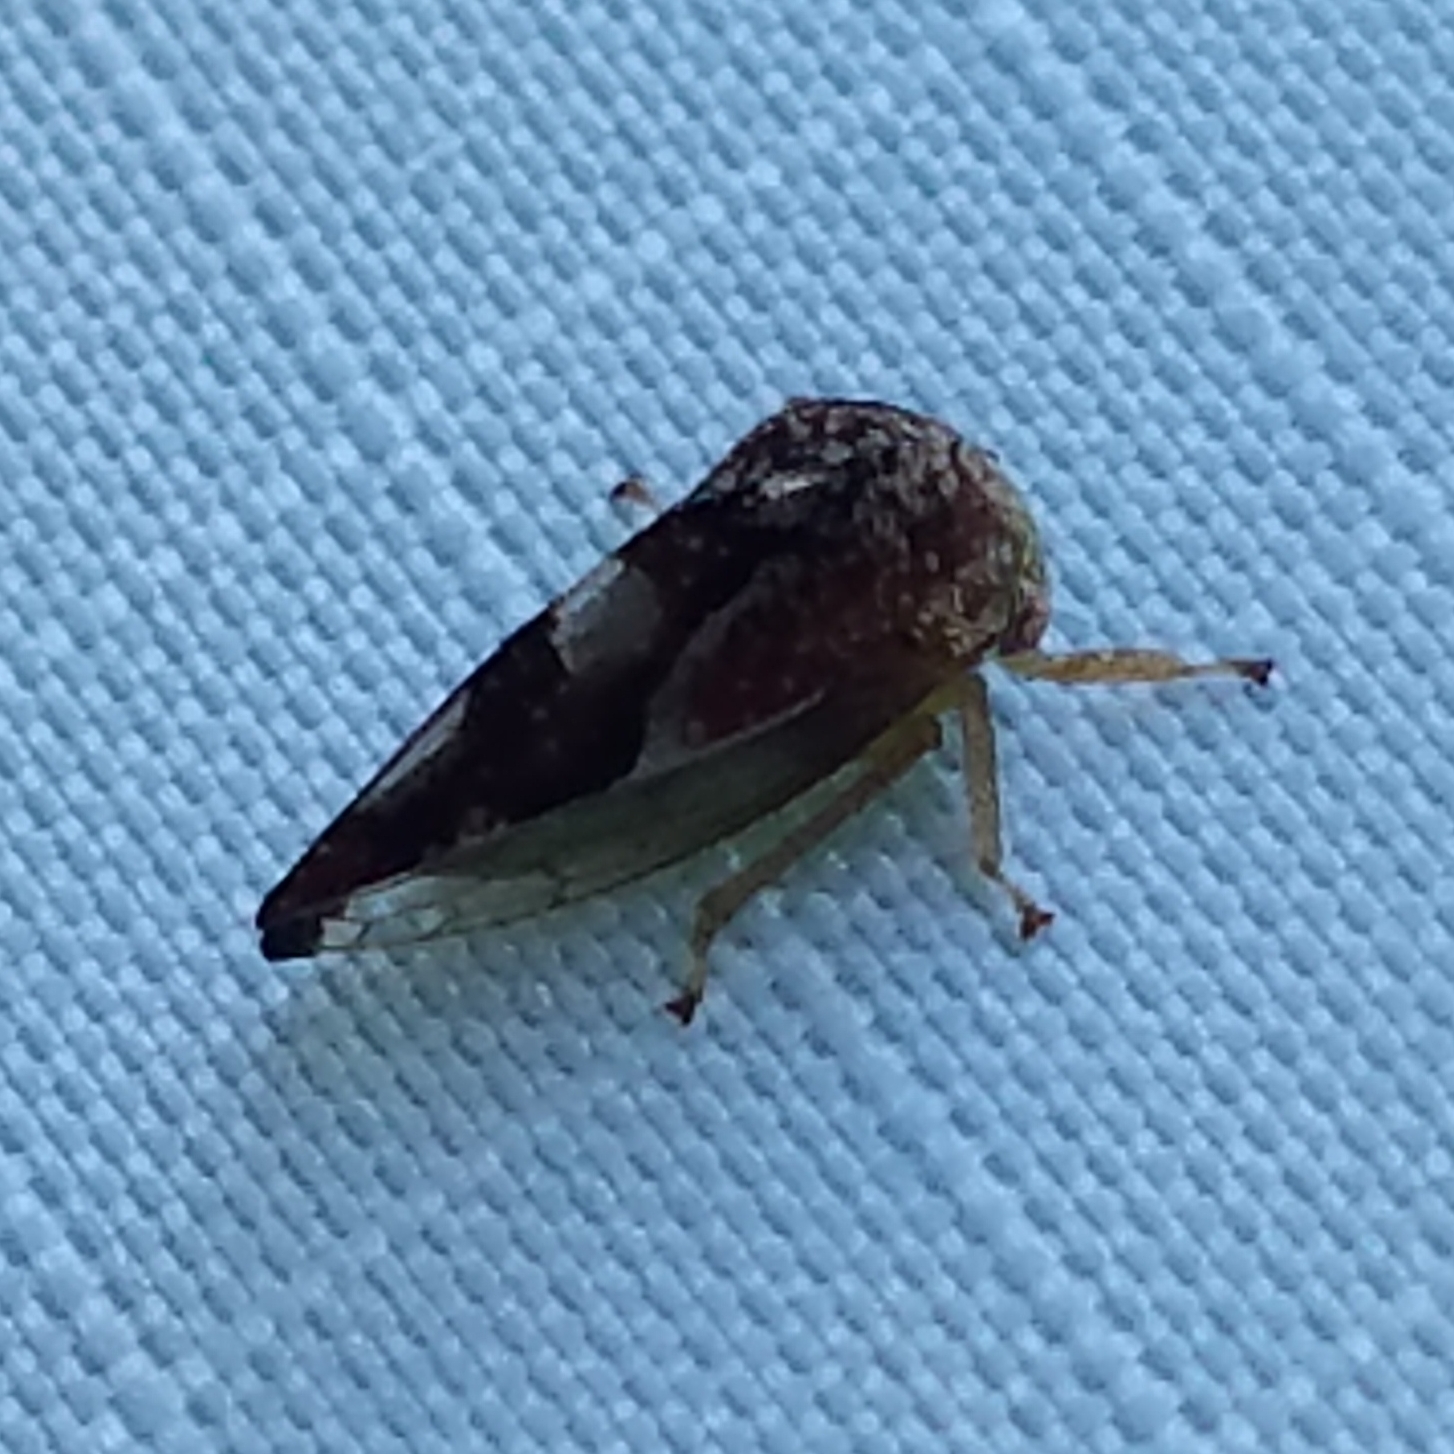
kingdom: Animalia
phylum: Arthropoda
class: Insecta
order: Hemiptera
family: Membracidae
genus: Cyrtolobus
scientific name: Cyrtolobus fenestrata
